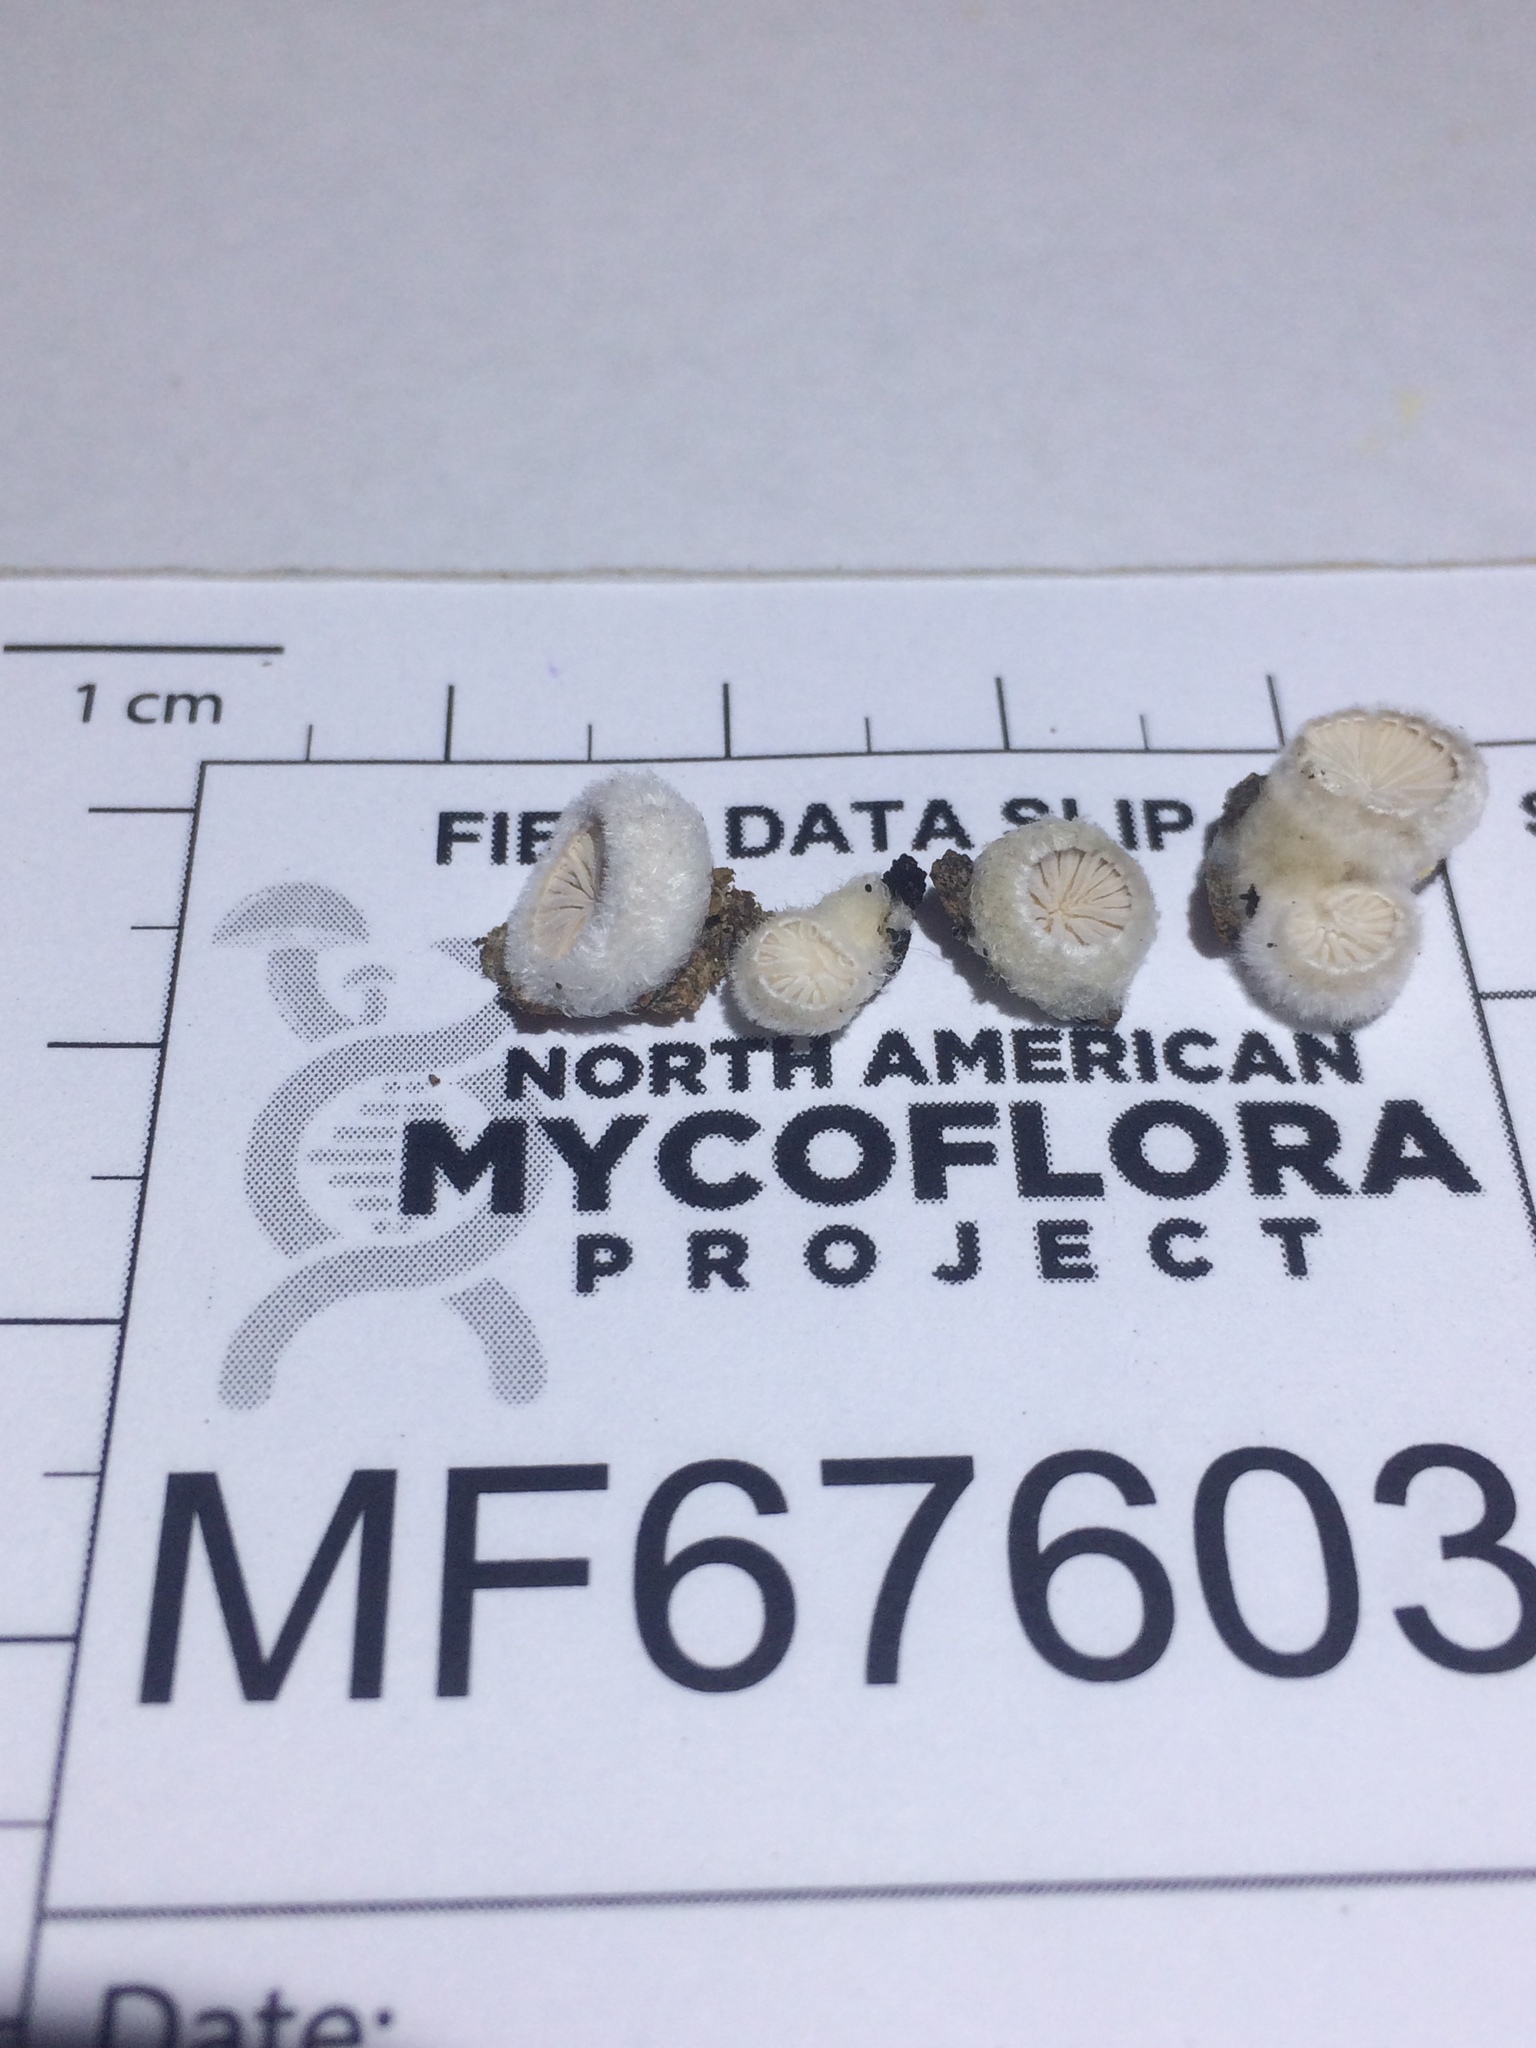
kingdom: Fungi
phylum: Basidiomycota
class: Agaricomycetes
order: Agaricales
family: Schizophyllaceae
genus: Schizophyllum
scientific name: Schizophyllum commune
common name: Common porecrust
